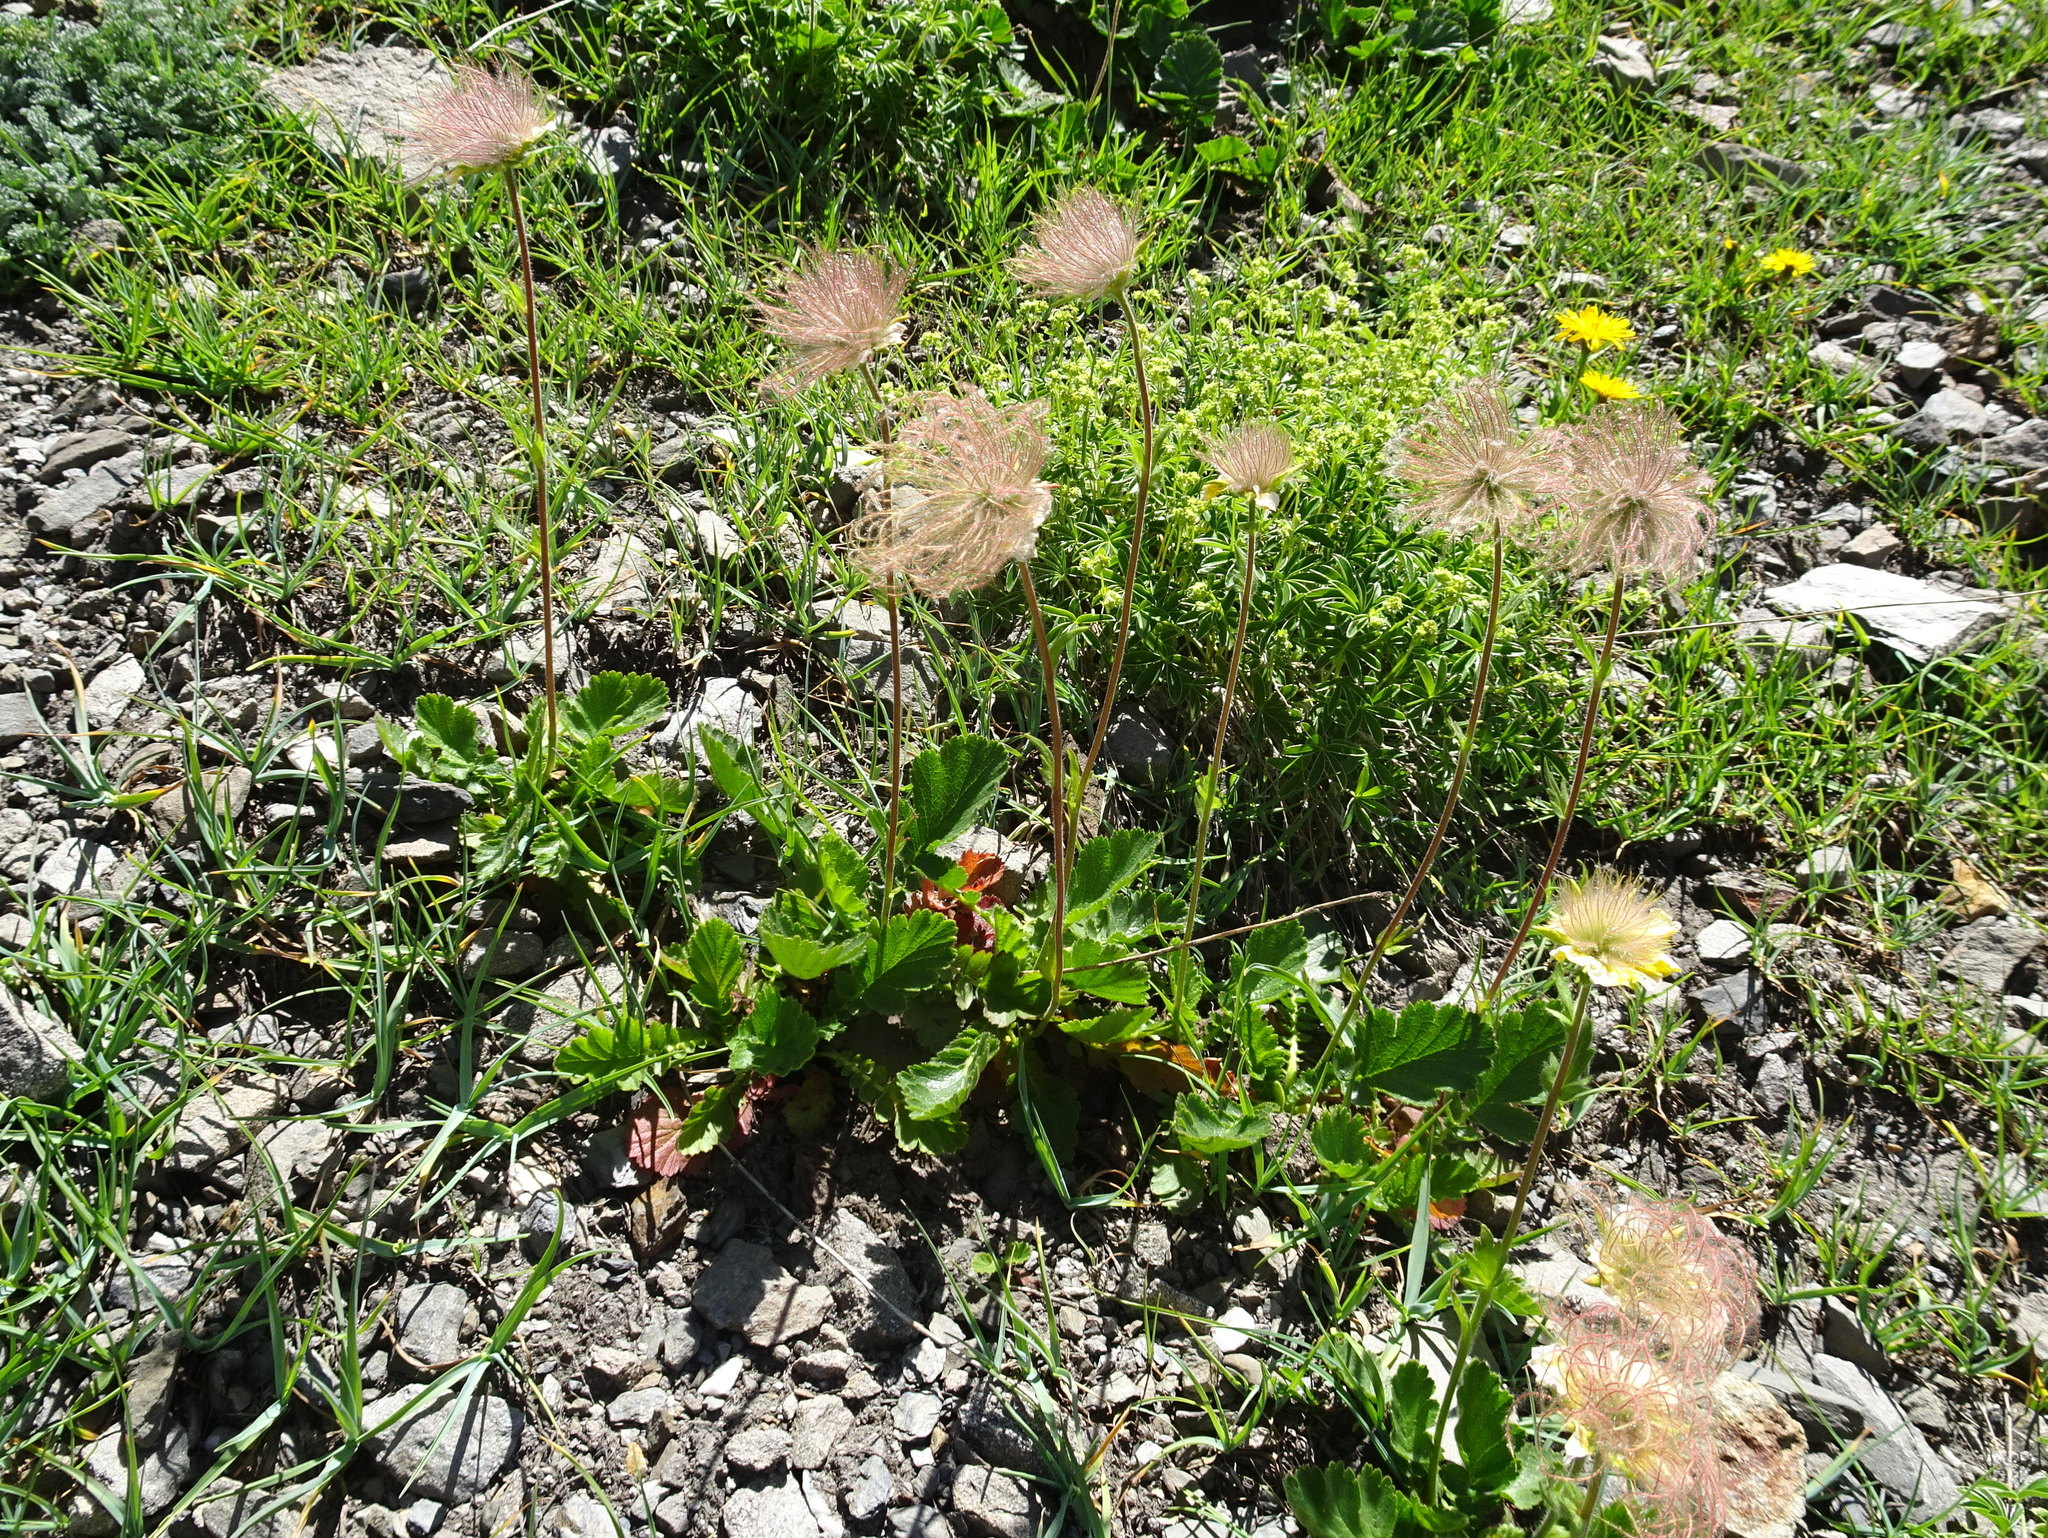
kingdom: Plantae
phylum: Tracheophyta
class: Magnoliopsida
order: Rosales
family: Rosaceae
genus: Geum
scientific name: Geum montanum
